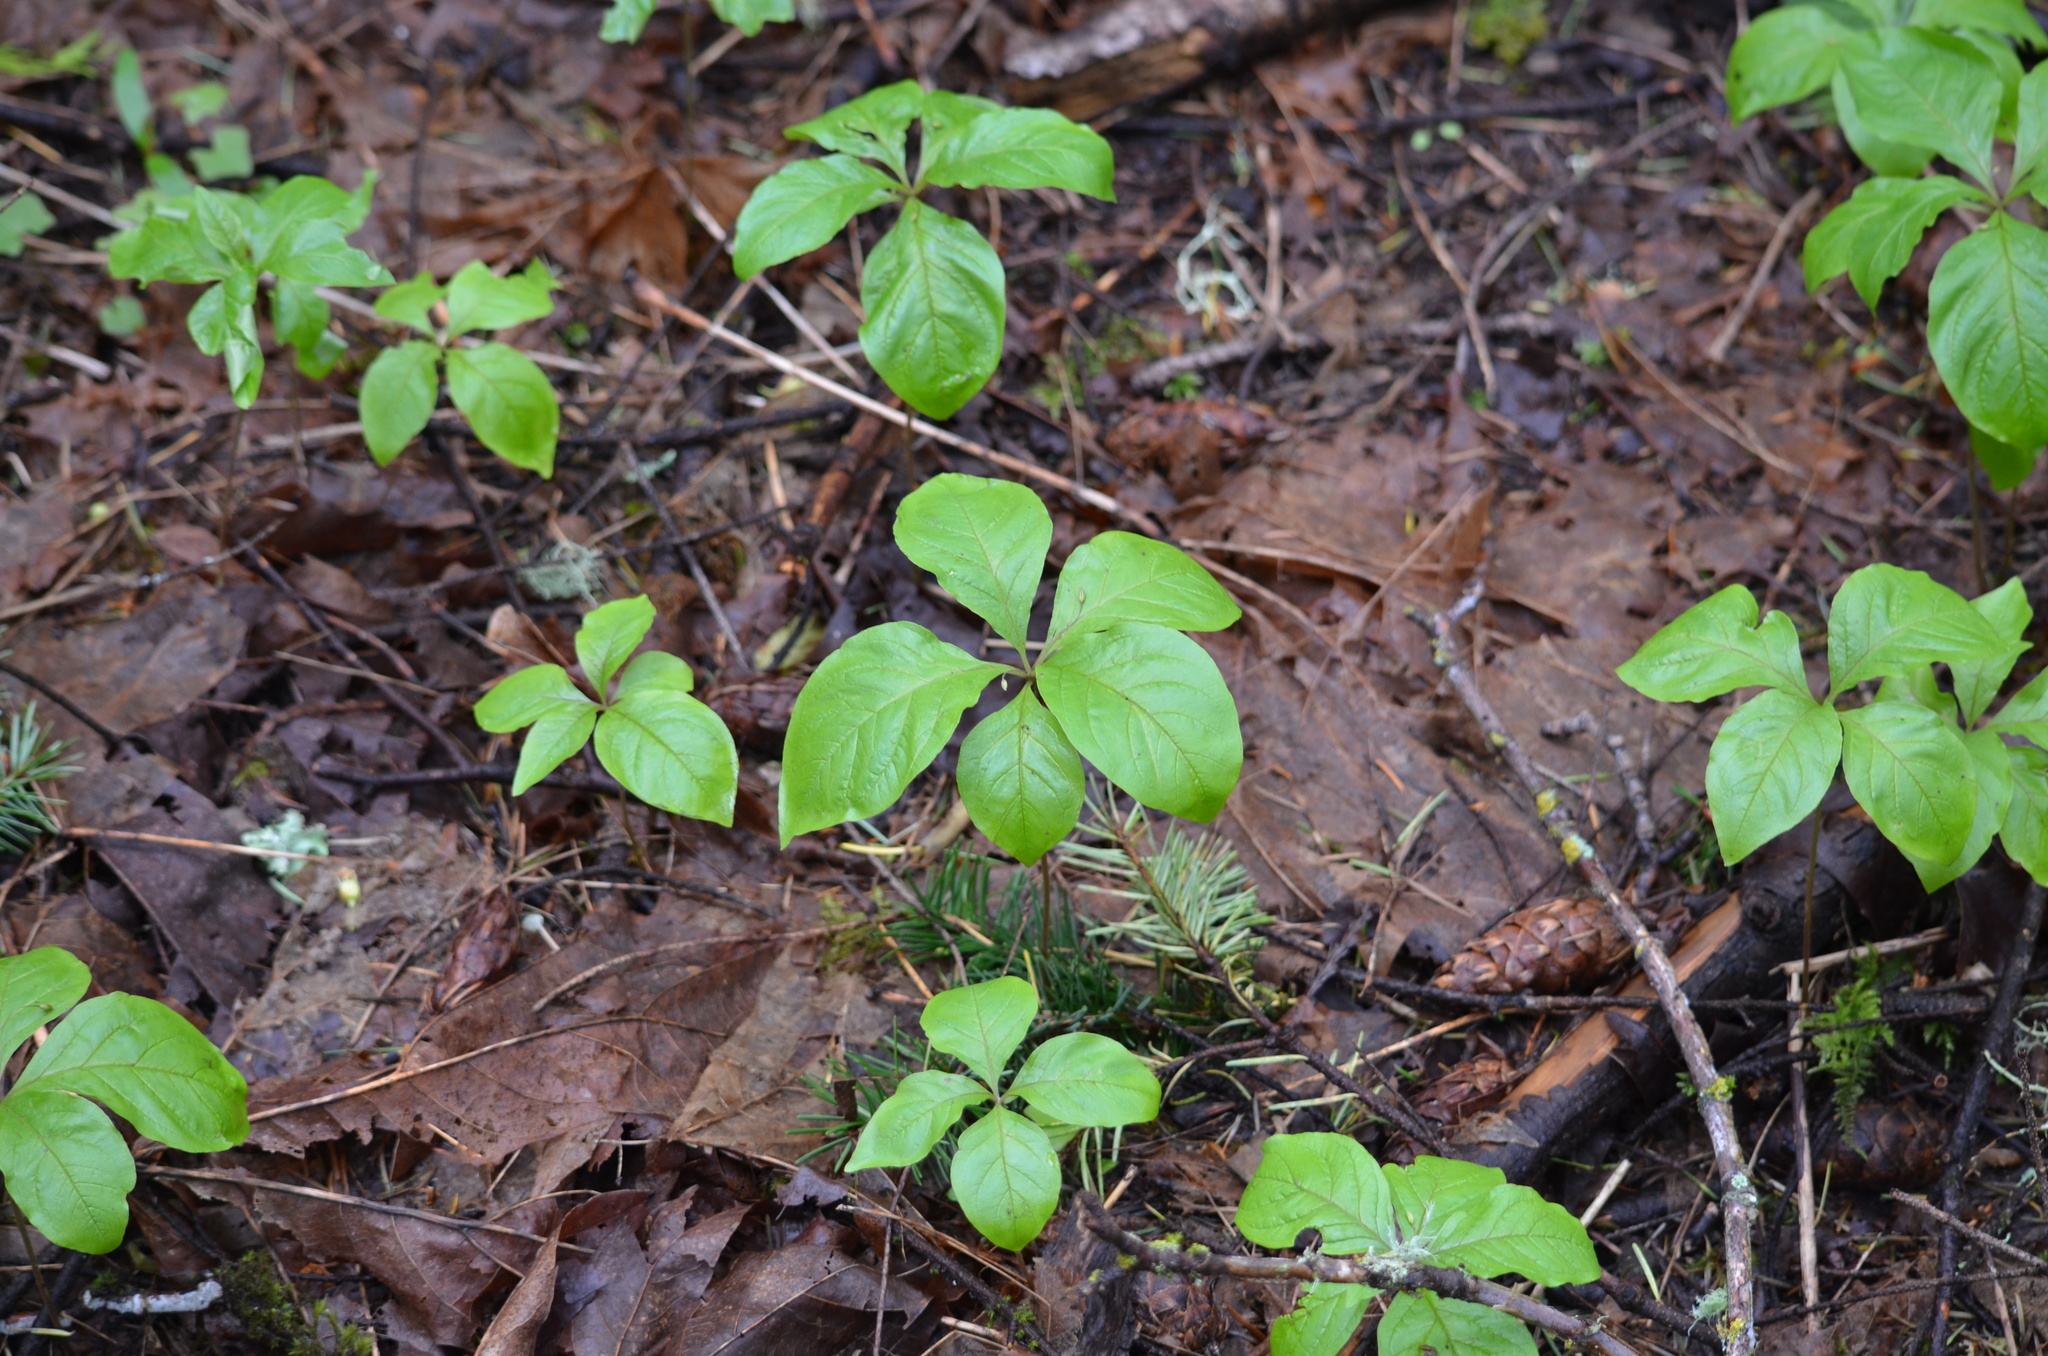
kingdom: Plantae
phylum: Tracheophyta
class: Magnoliopsida
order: Ericales
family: Primulaceae
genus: Lysimachia
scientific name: Lysimachia latifolia
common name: Pacific starflower
